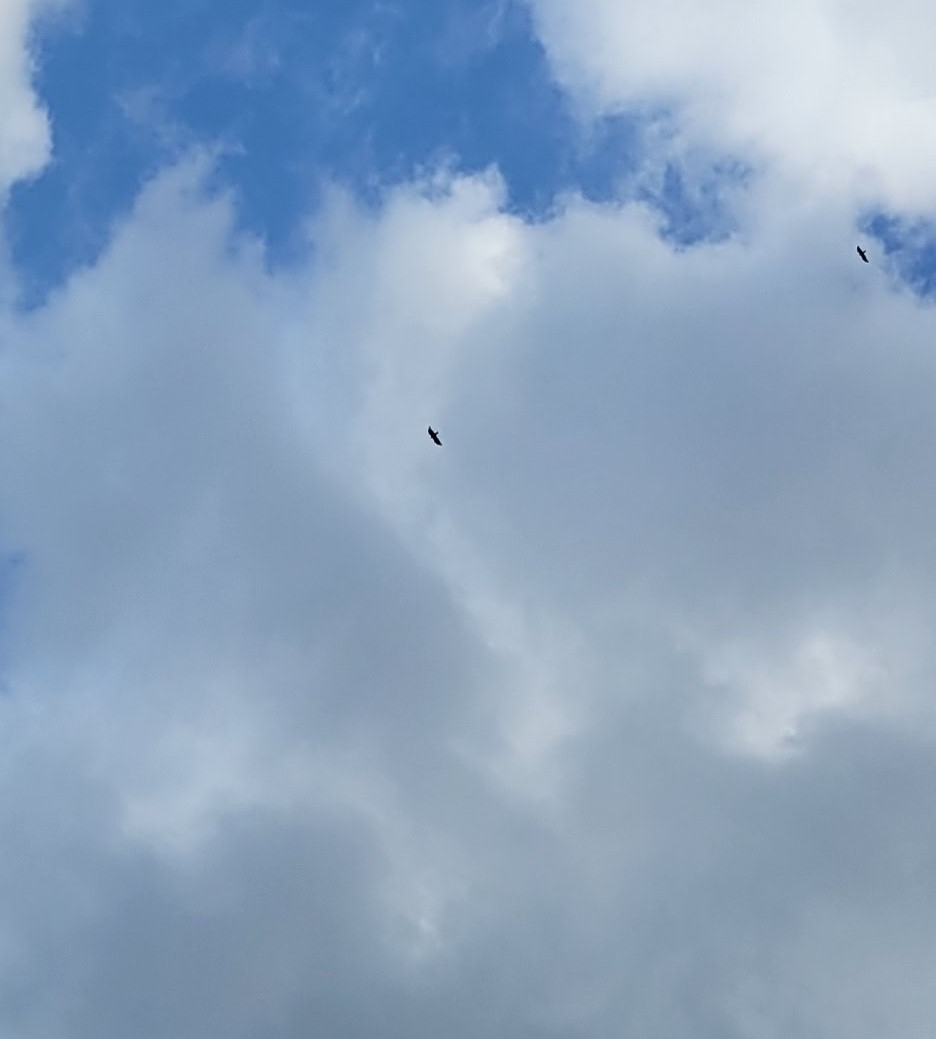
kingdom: Animalia
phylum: Chordata
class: Aves
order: Accipitriformes
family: Cathartidae
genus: Cathartes
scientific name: Cathartes aura
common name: Turkey vulture
